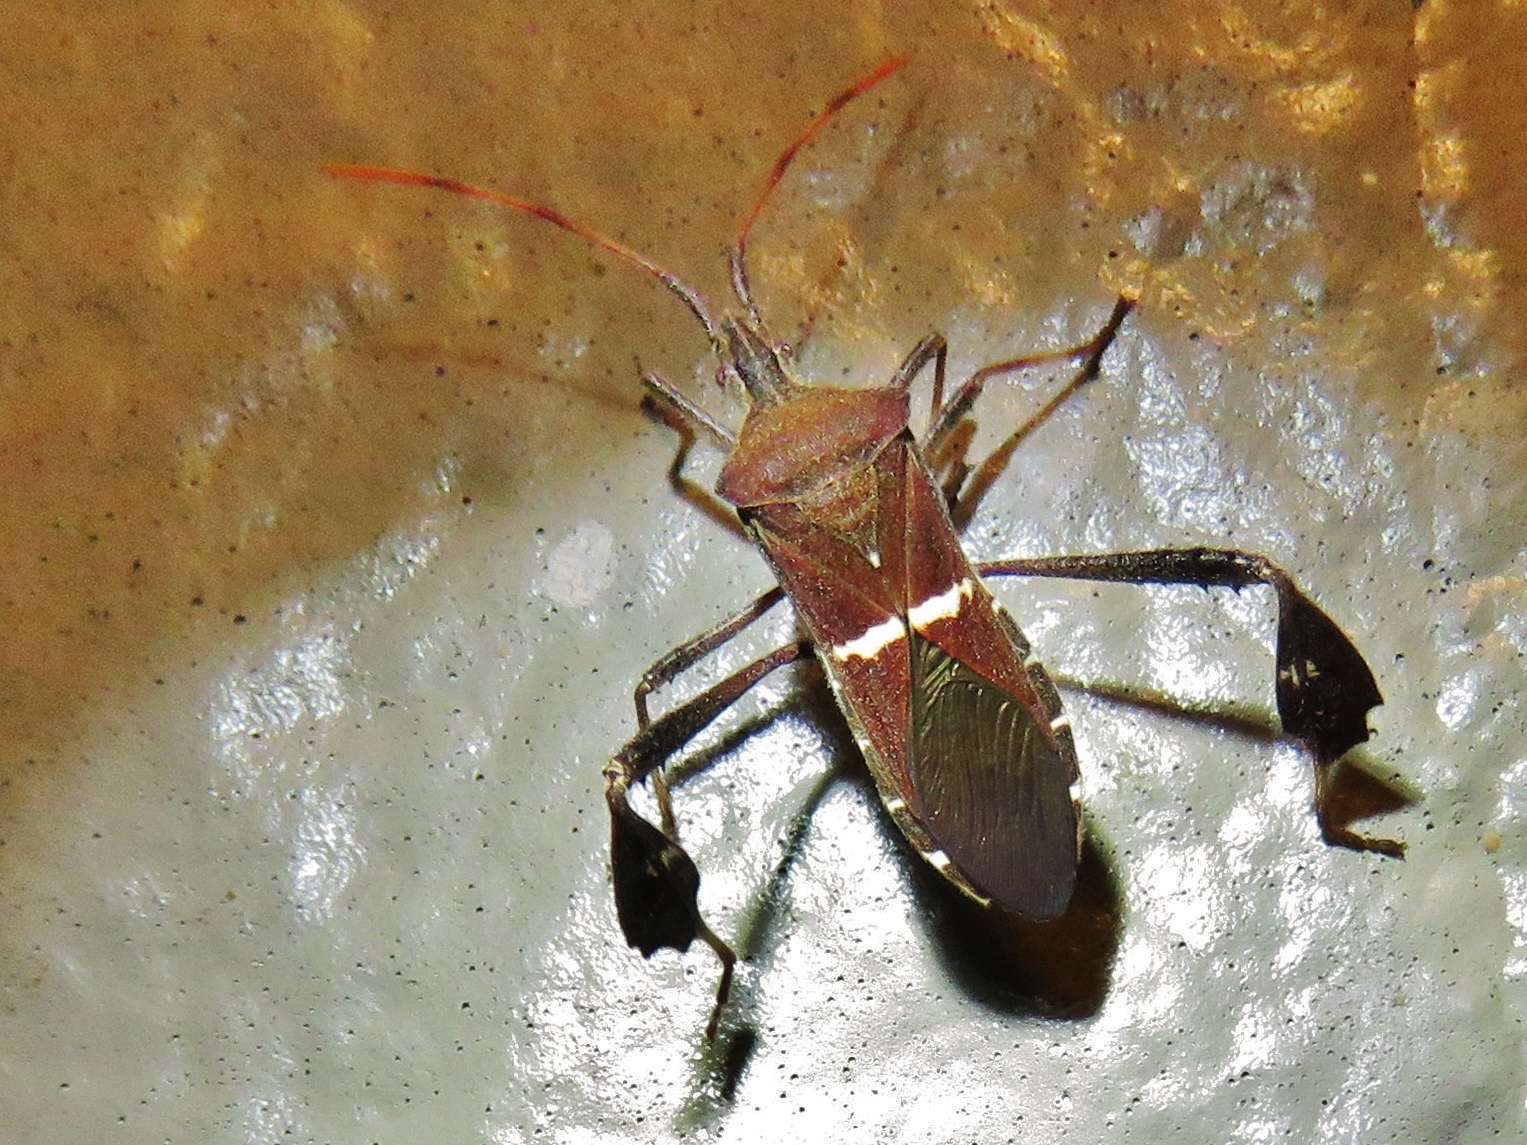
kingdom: Animalia
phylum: Arthropoda
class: Insecta
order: Hemiptera
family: Coreidae
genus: Leptoglossus
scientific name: Leptoglossus phyllopus
